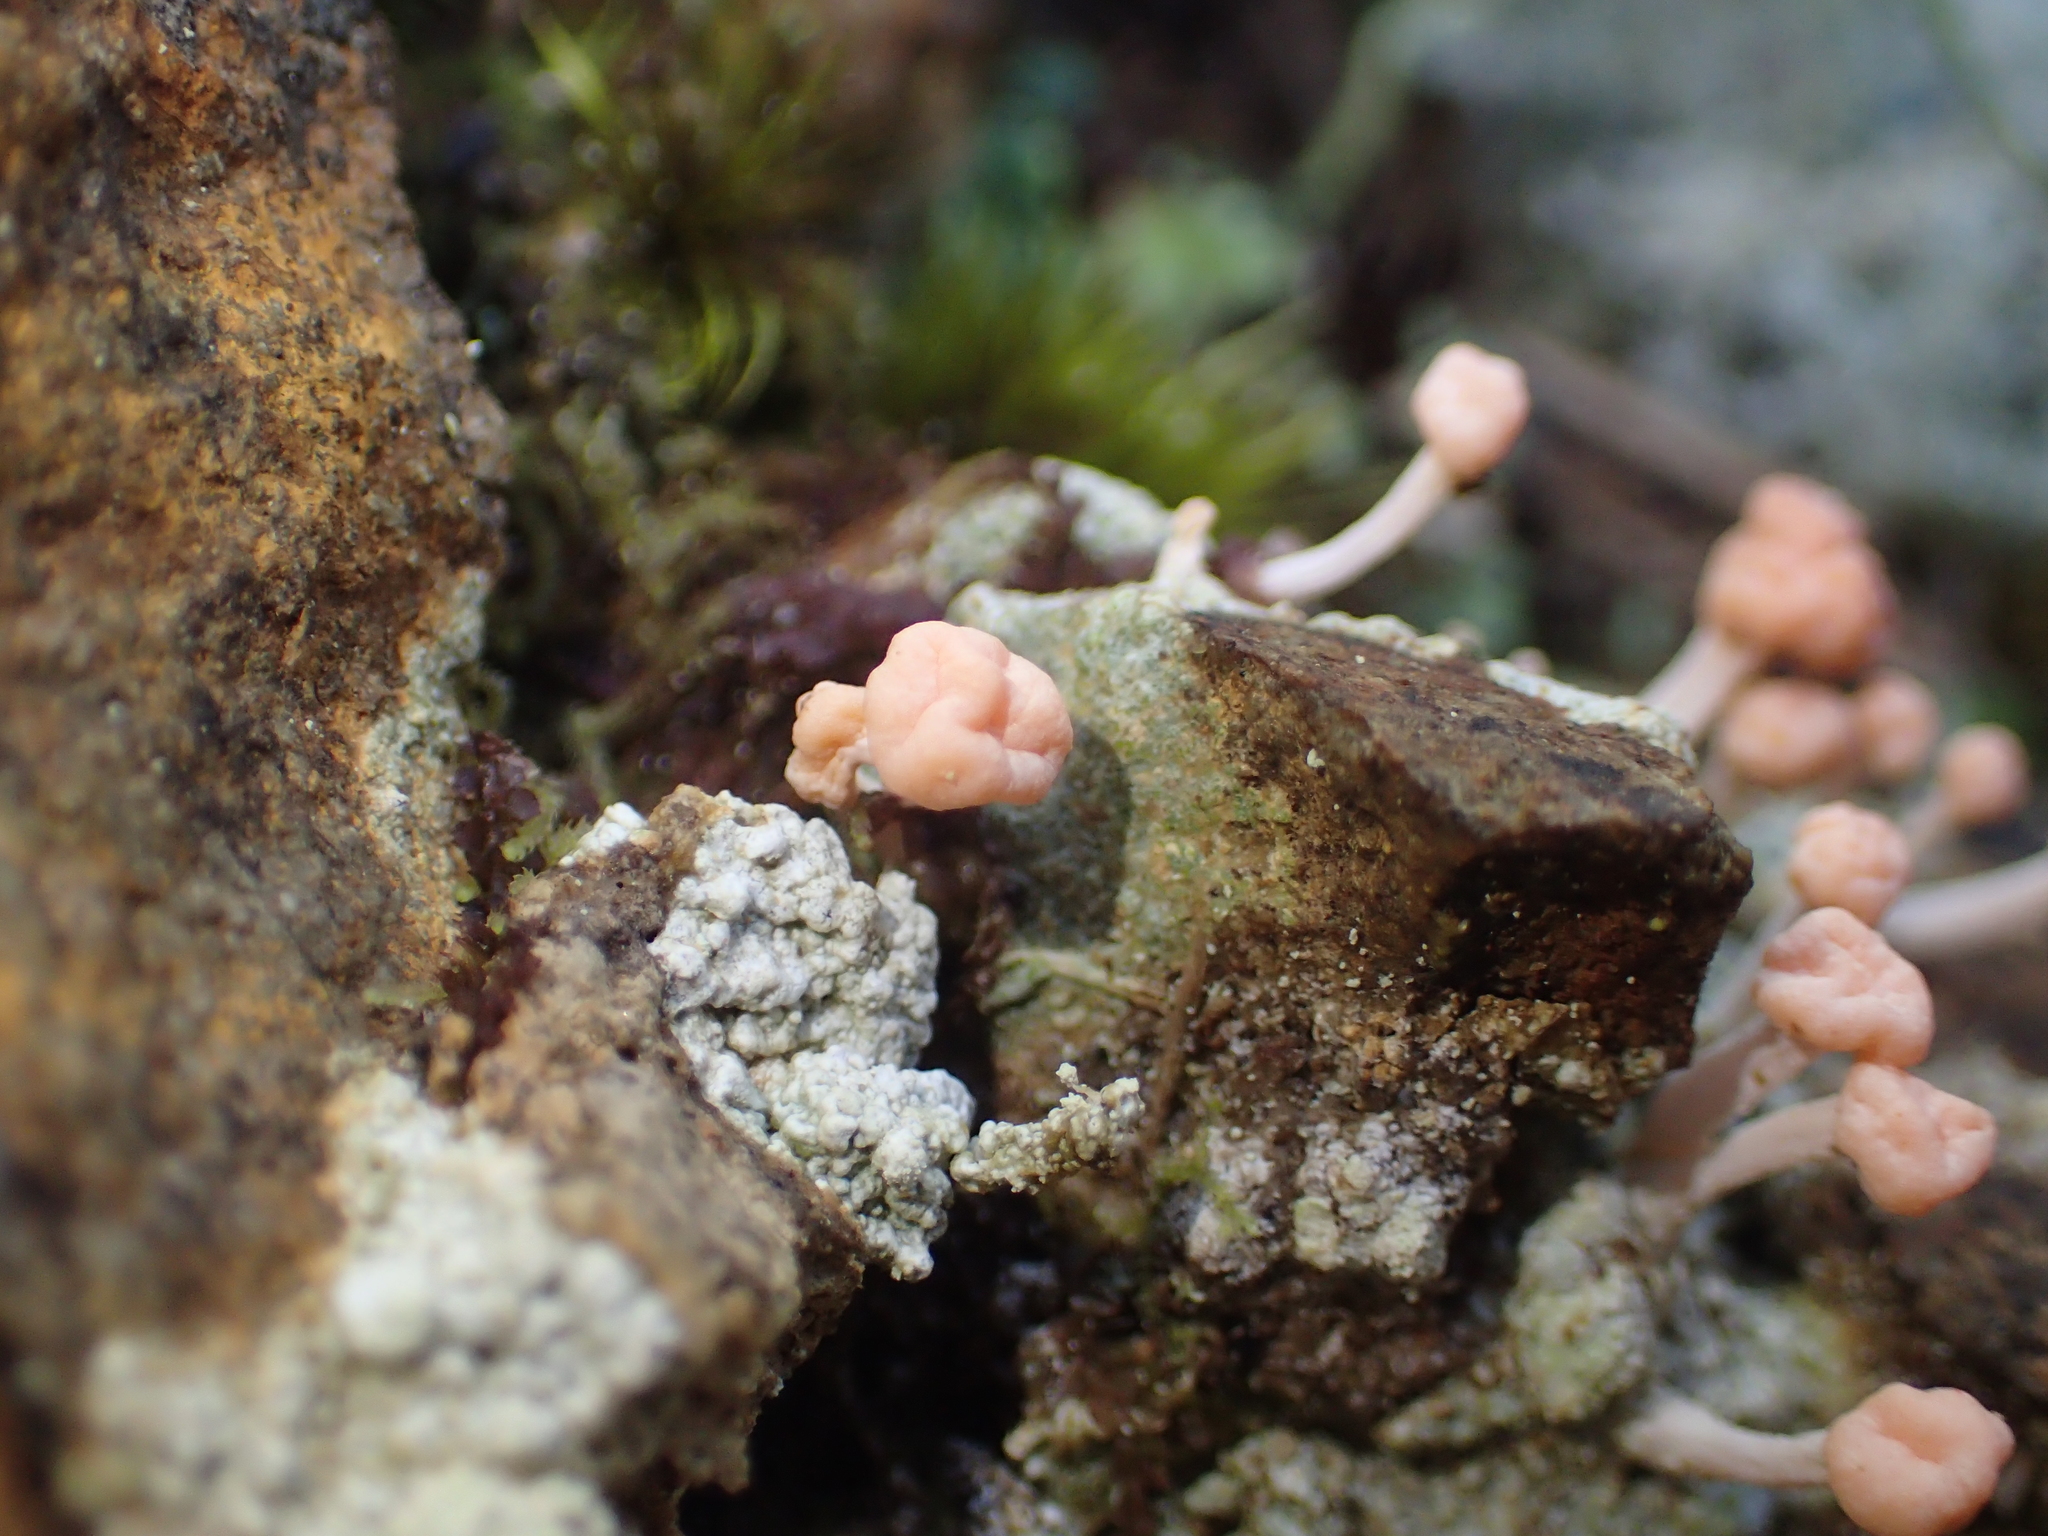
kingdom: Fungi
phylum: Ascomycota
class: Lecanoromycetes
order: Pertusariales
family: Icmadophilaceae
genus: Dibaeis
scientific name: Dibaeis arcuata
